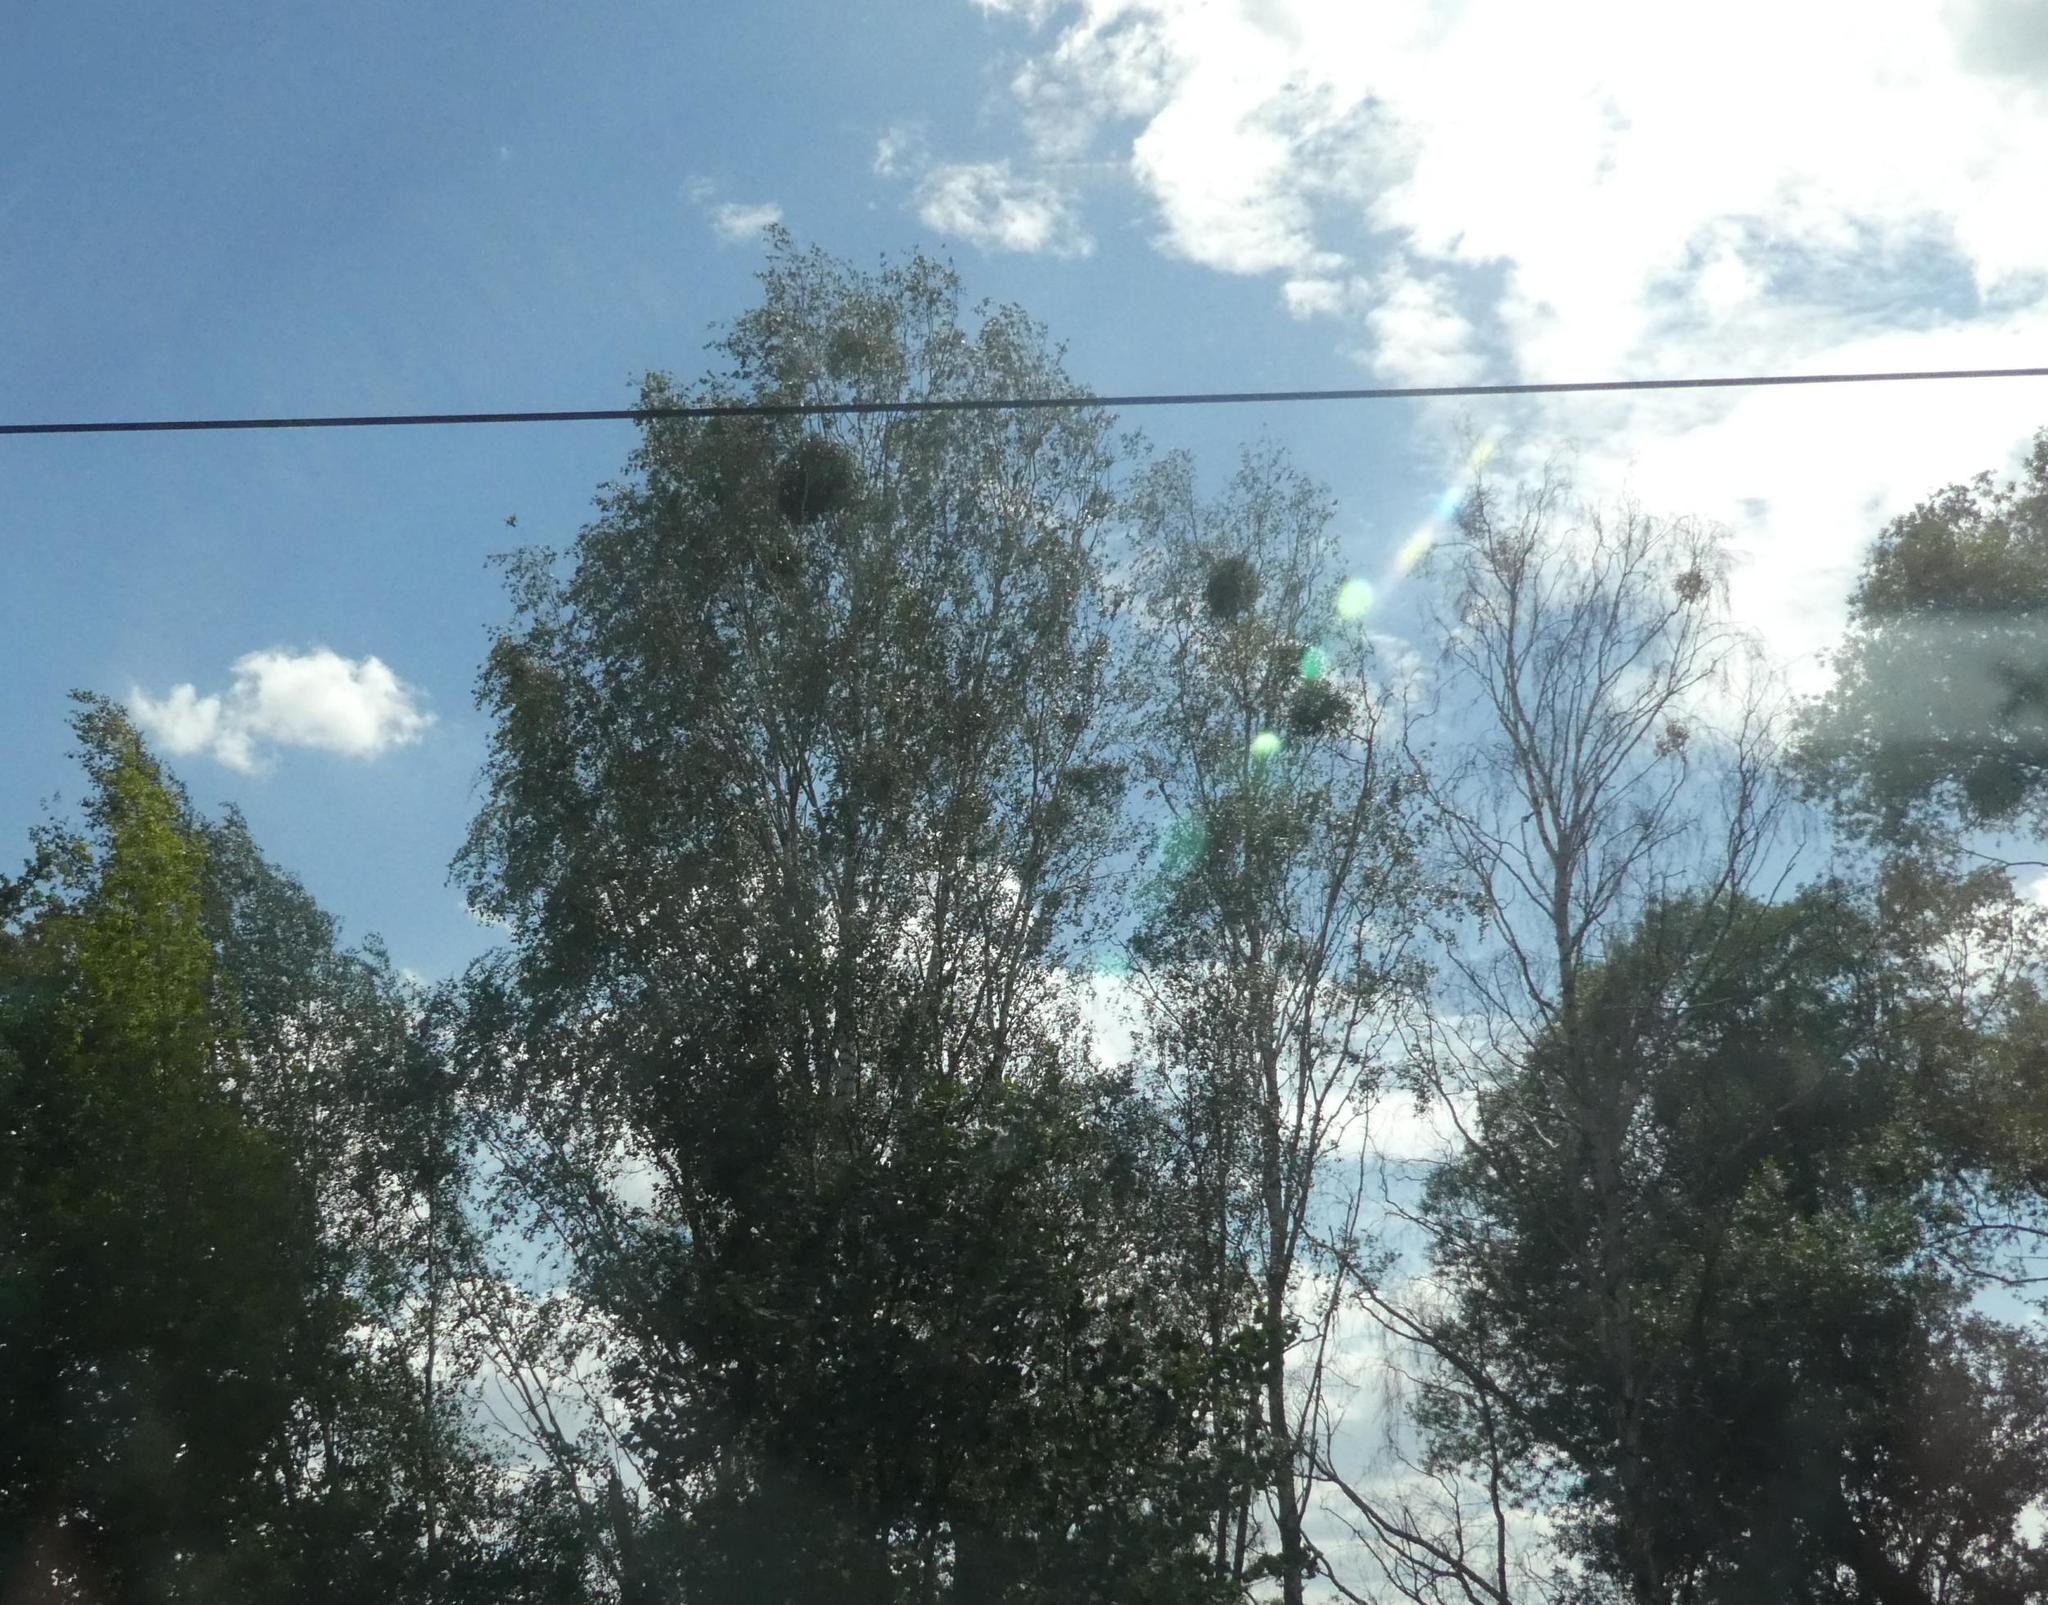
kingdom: Plantae
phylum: Tracheophyta
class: Magnoliopsida
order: Santalales
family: Viscaceae
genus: Viscum
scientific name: Viscum album
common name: Mistletoe
